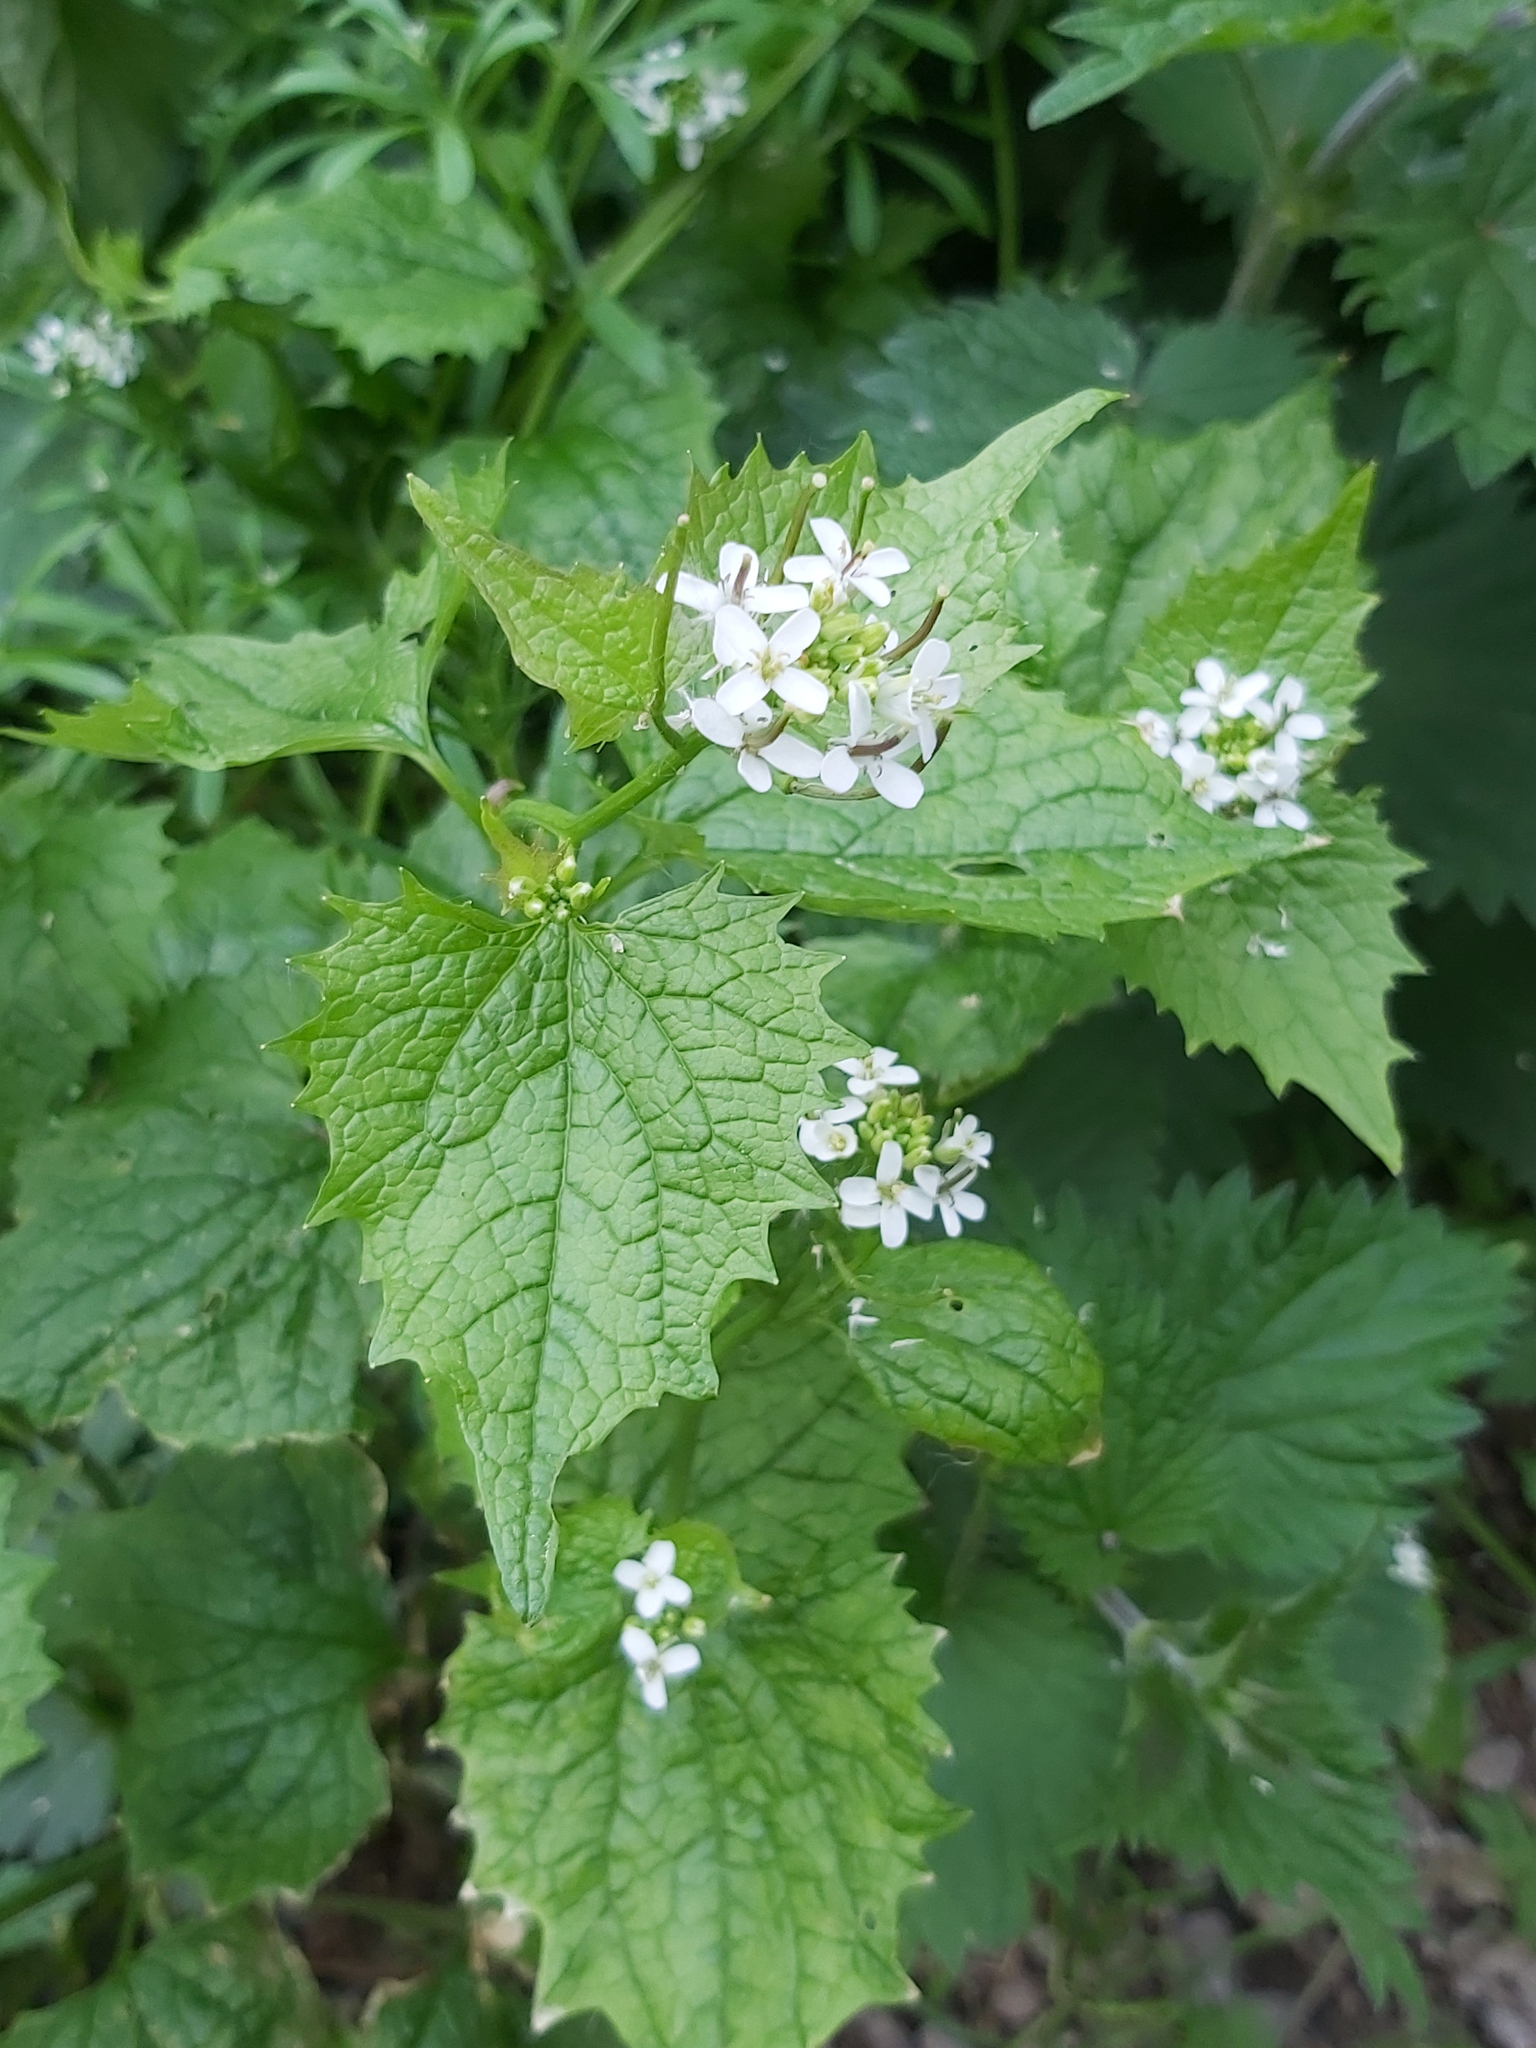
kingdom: Plantae
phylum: Tracheophyta
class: Magnoliopsida
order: Brassicales
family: Brassicaceae
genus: Alliaria
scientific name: Alliaria petiolata
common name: Garlic mustard
